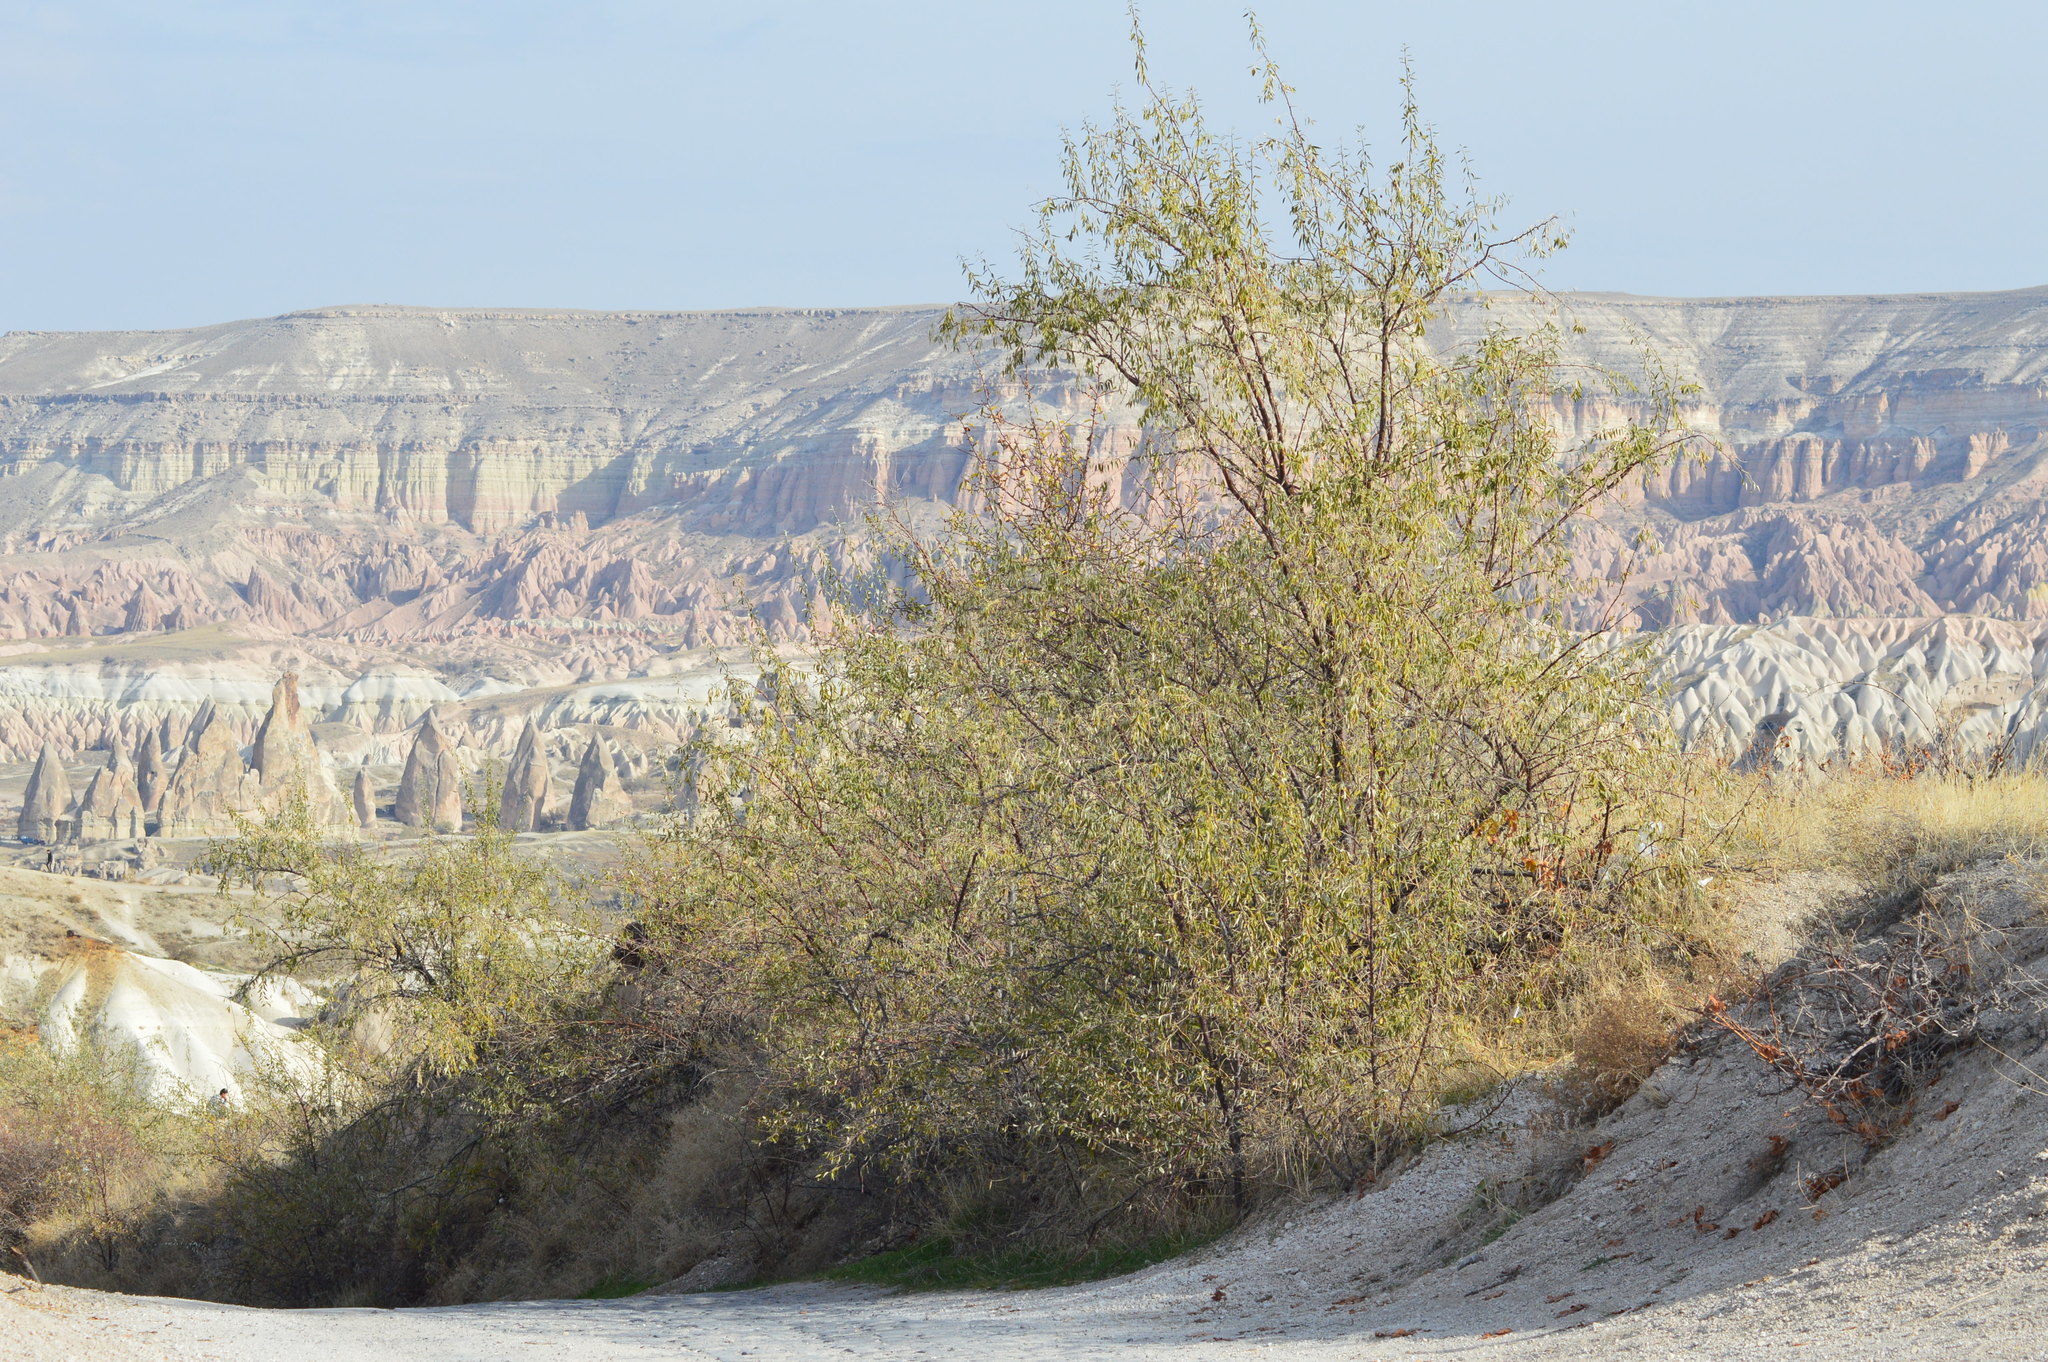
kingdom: Plantae
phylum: Tracheophyta
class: Magnoliopsida
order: Rosales
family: Elaeagnaceae
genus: Elaeagnus
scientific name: Elaeagnus angustifolia
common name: Russian olive
